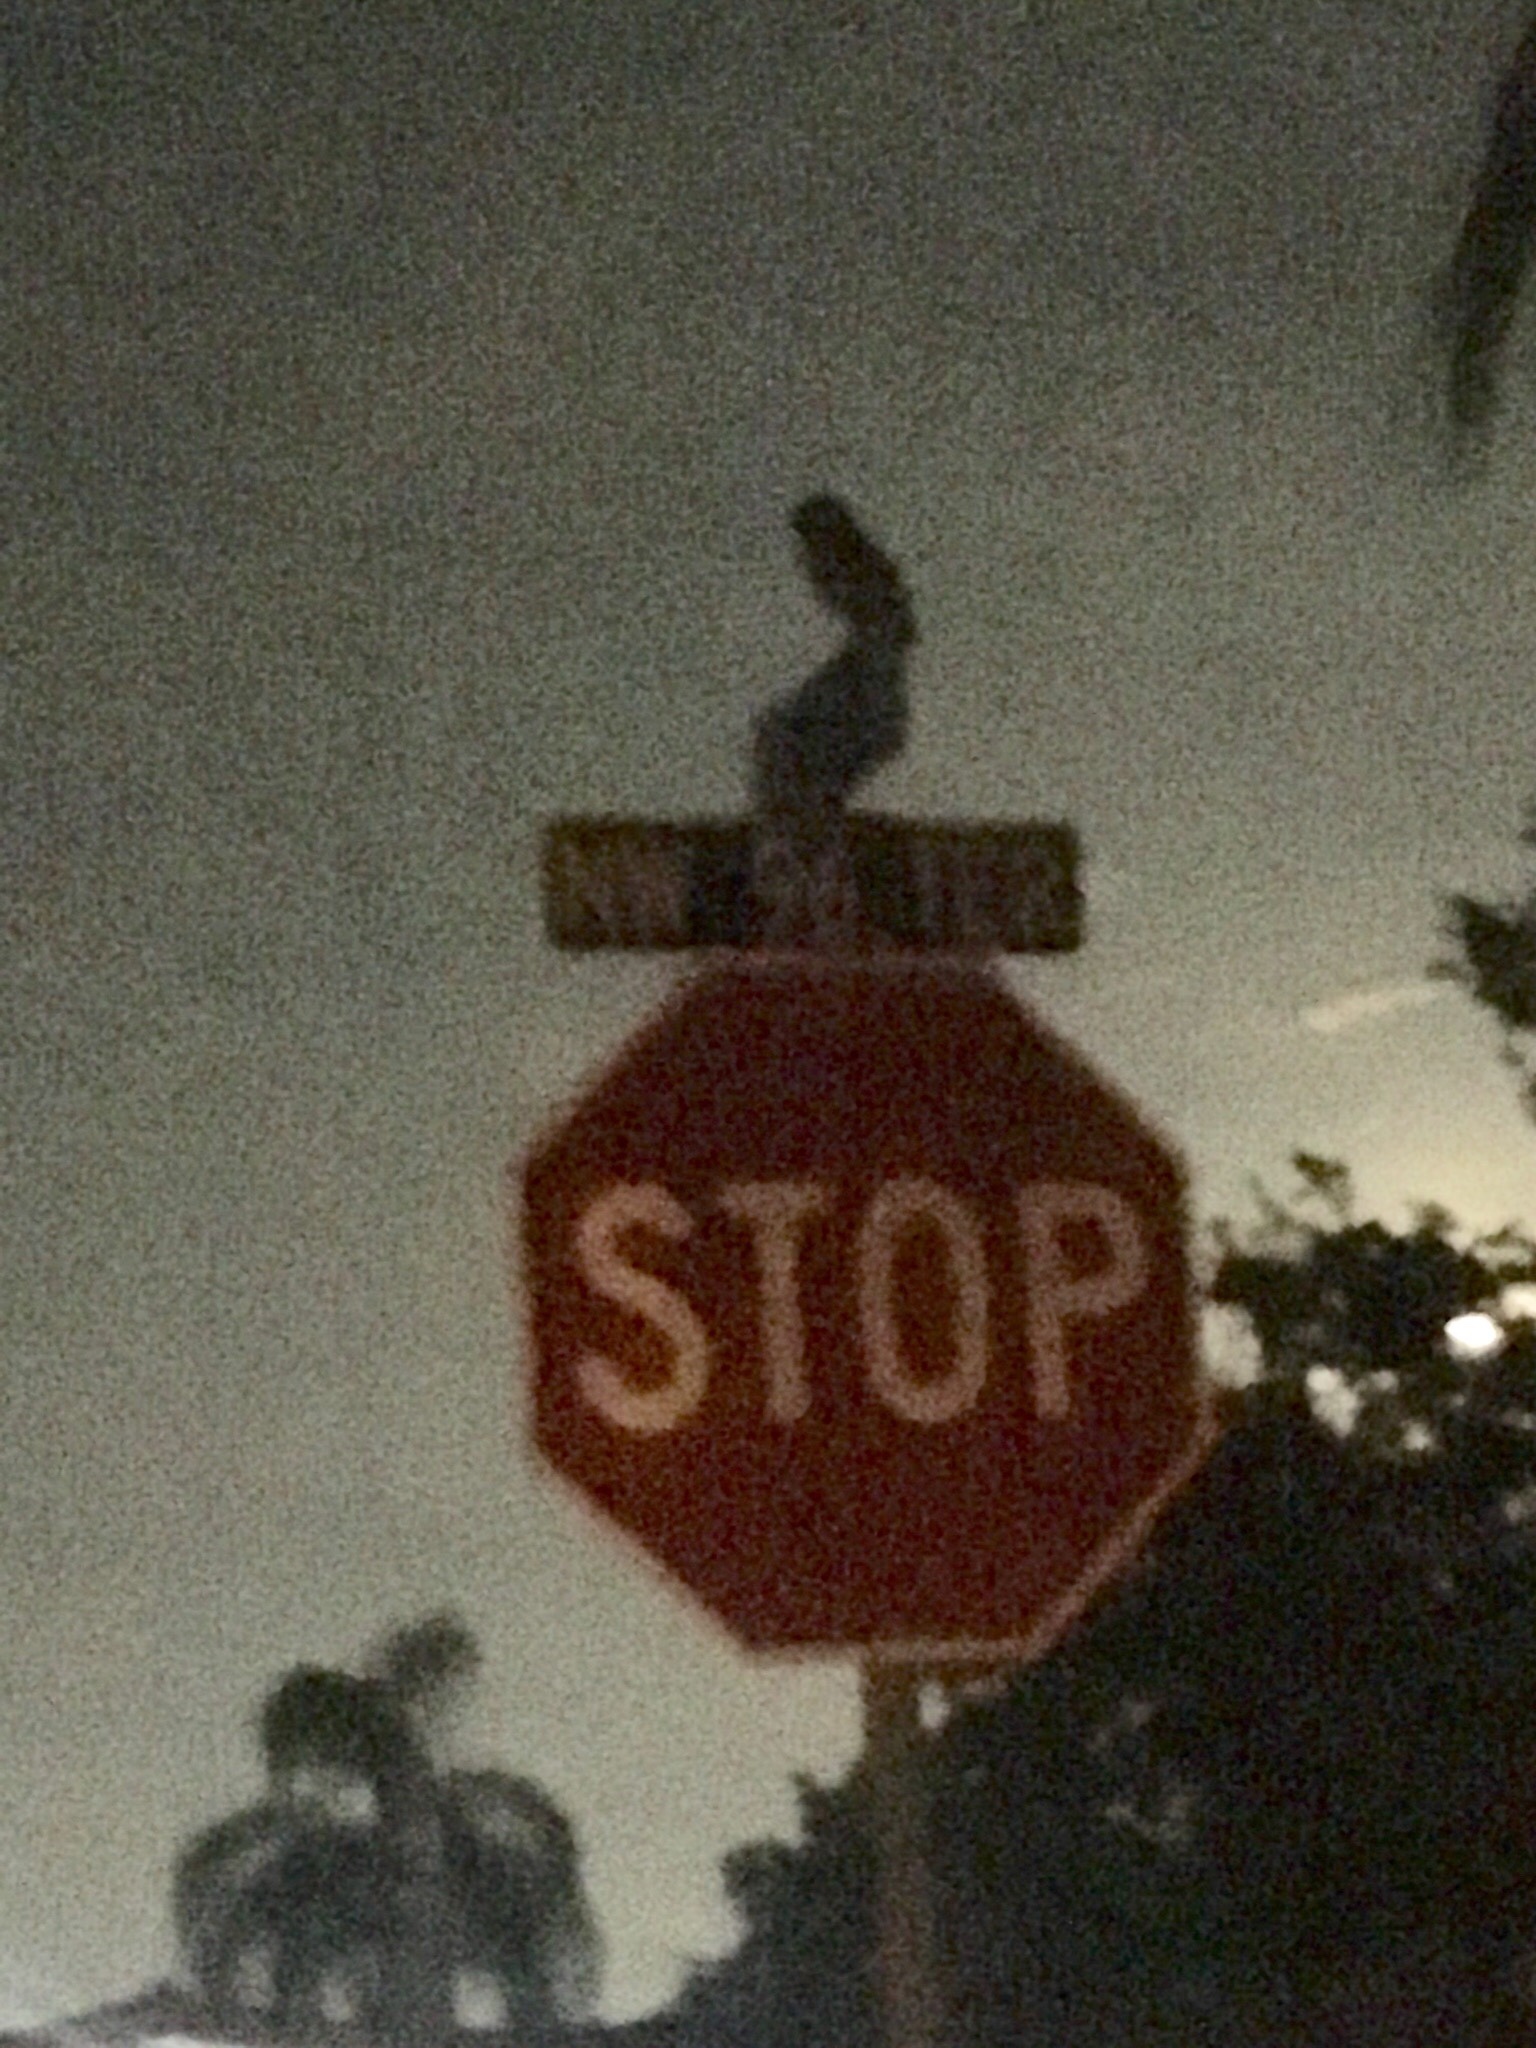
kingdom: Animalia
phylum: Chordata
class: Aves
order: Strigiformes
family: Strigidae
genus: Athene
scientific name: Athene cunicularia
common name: Burrowing owl
